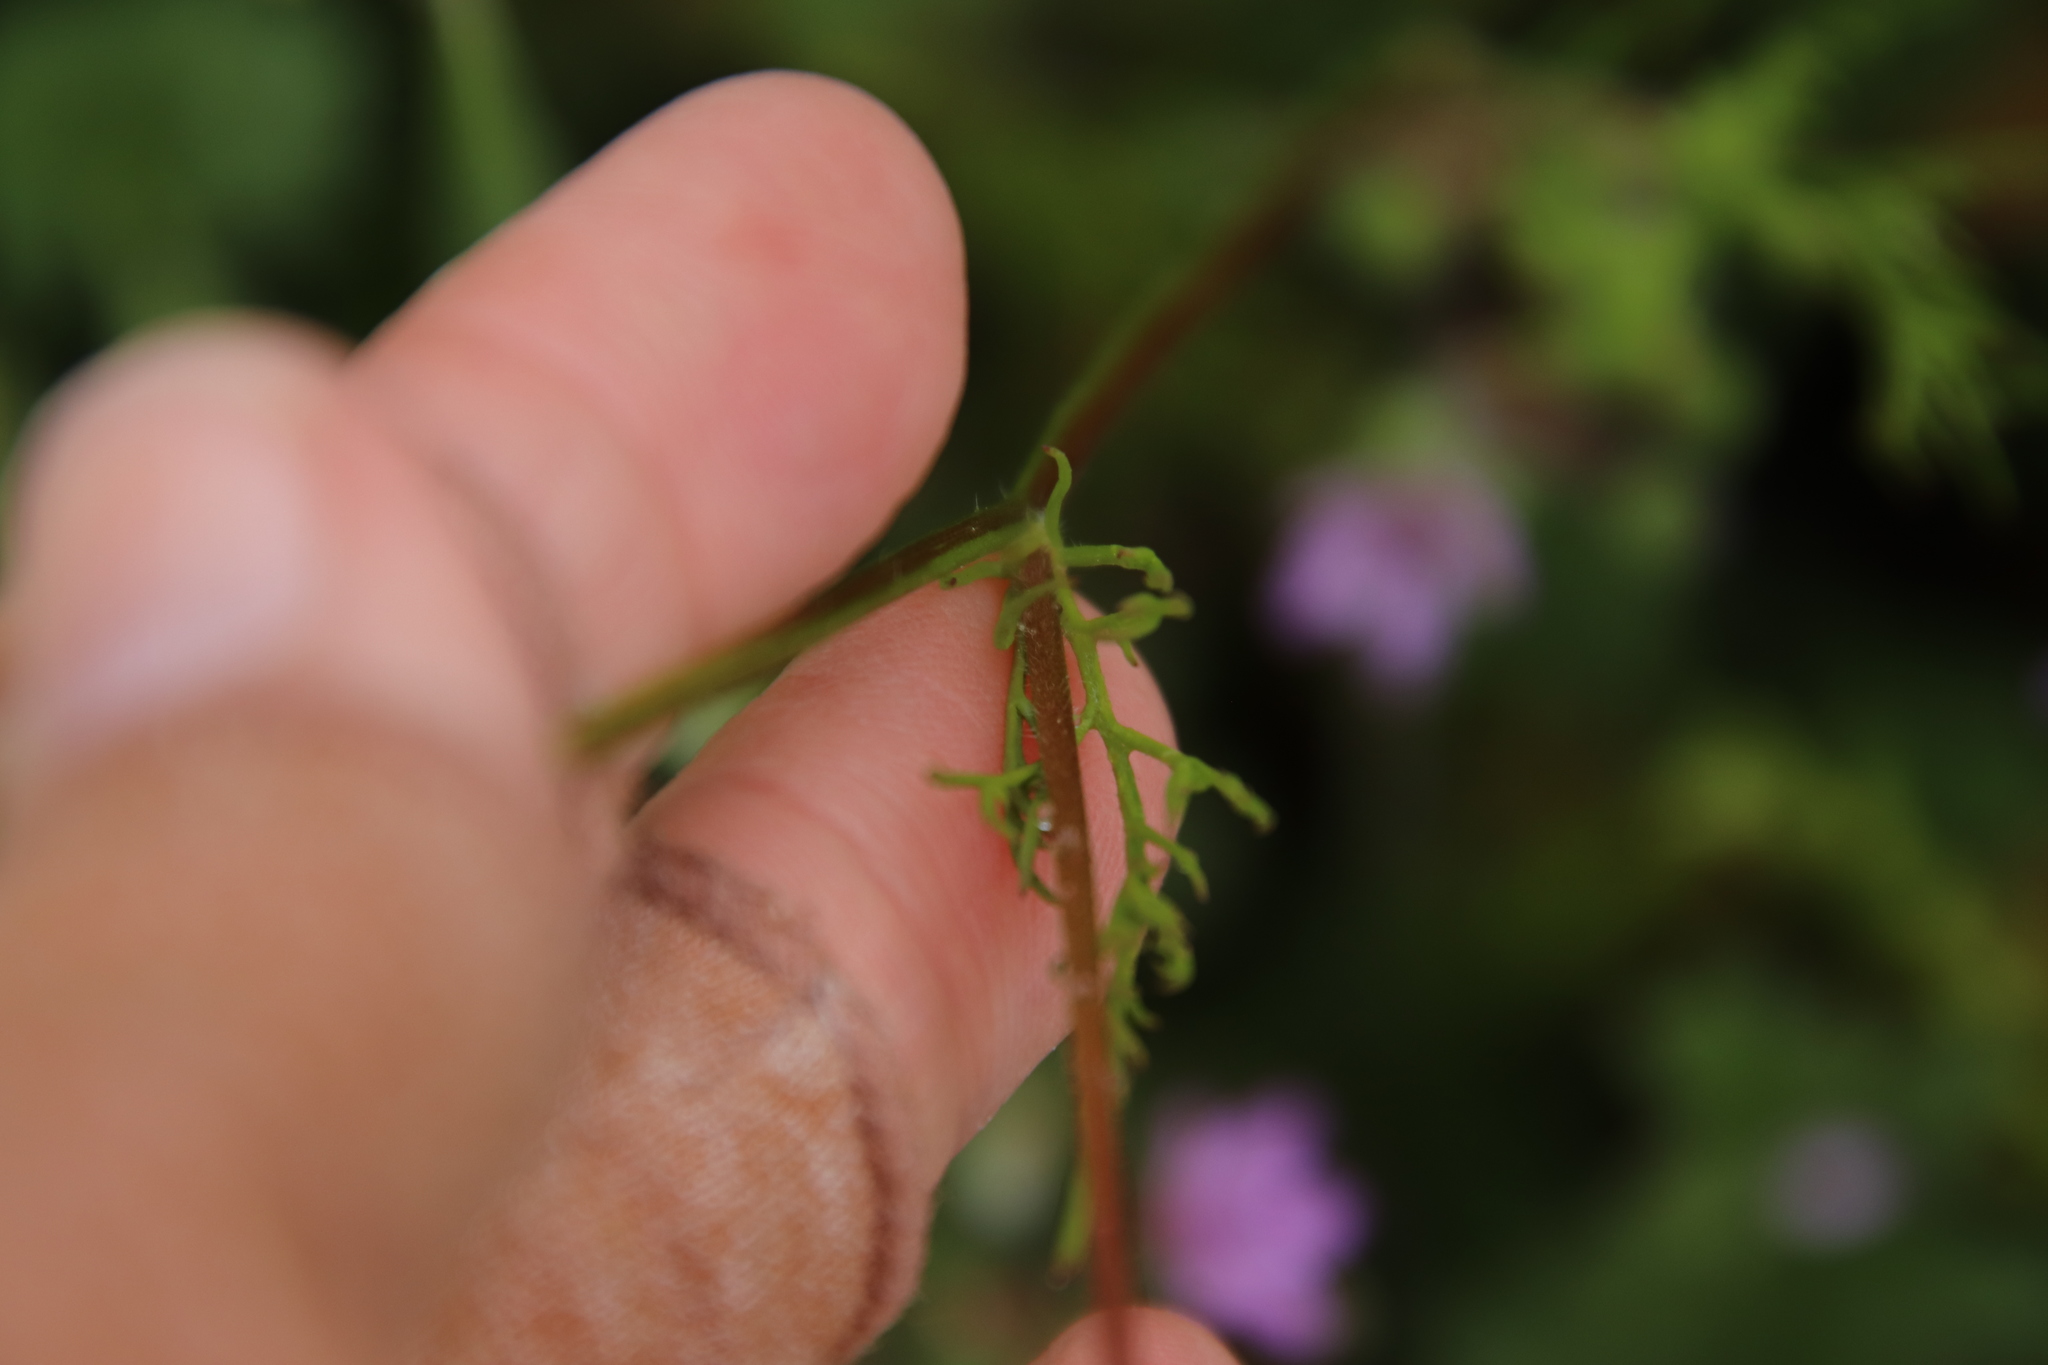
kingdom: Plantae
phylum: Tracheophyta
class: Magnoliopsida
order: Ericales
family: Polemoniaceae
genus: Gilia
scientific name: Gilia angelensis
